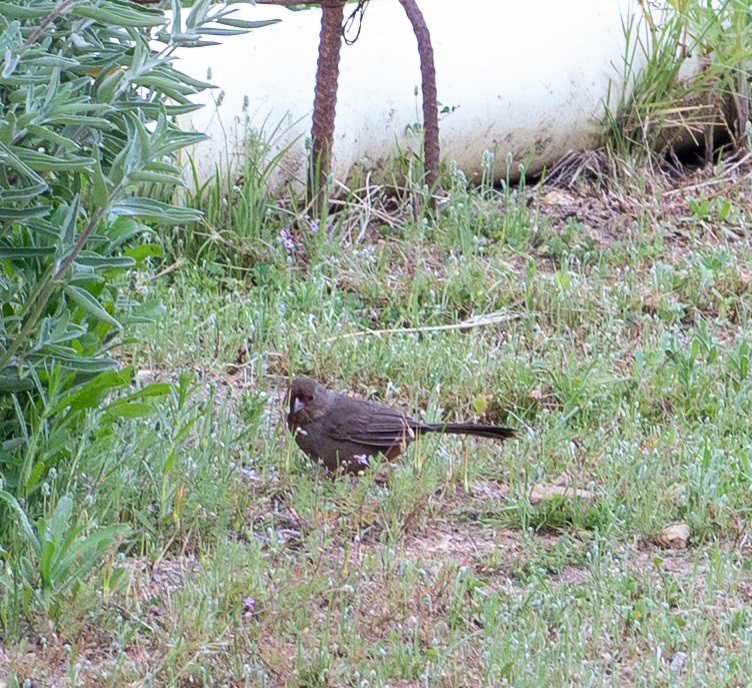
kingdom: Animalia
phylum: Chordata
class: Aves
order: Passeriformes
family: Passerellidae
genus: Melozone
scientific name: Melozone crissalis
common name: California towhee
